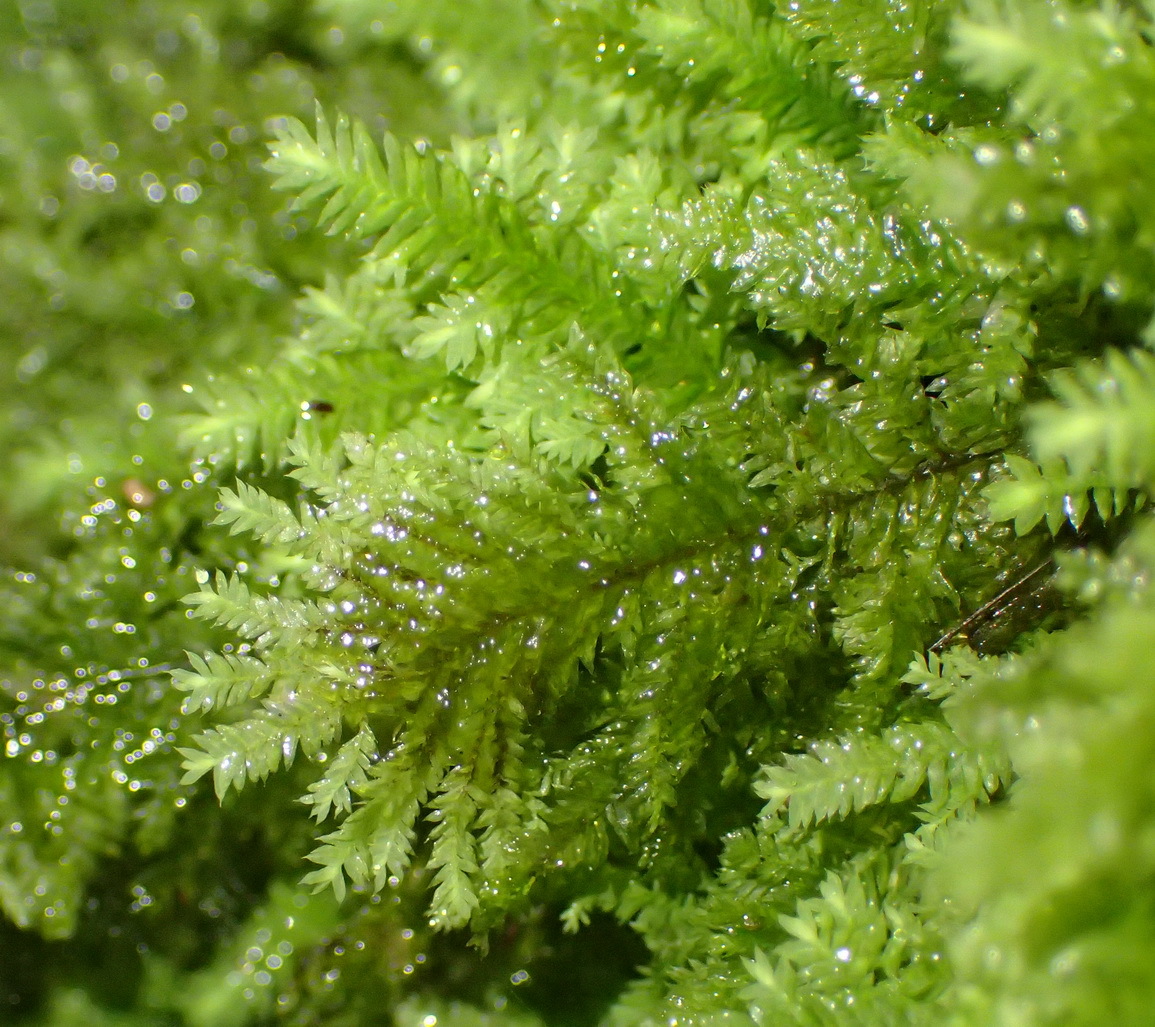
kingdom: Plantae
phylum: Bryophyta
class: Bryopsida
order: Hypopterygiales
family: Hypopterygiaceae
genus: Lopidium
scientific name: Lopidium struthiopteris
